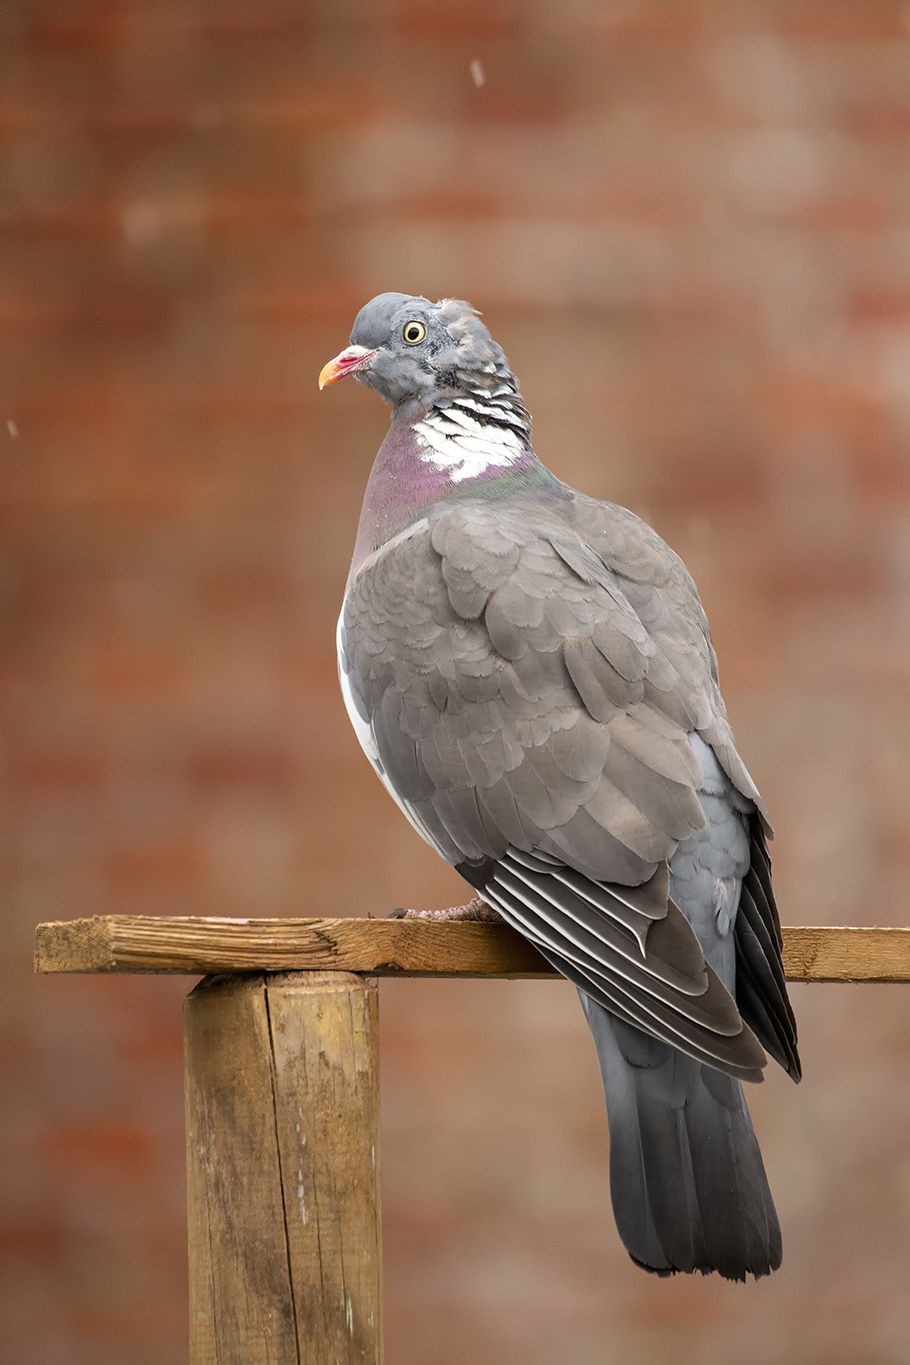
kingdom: Animalia
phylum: Chordata
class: Aves
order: Columbiformes
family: Columbidae
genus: Columba
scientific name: Columba palumbus
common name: Common wood pigeon
